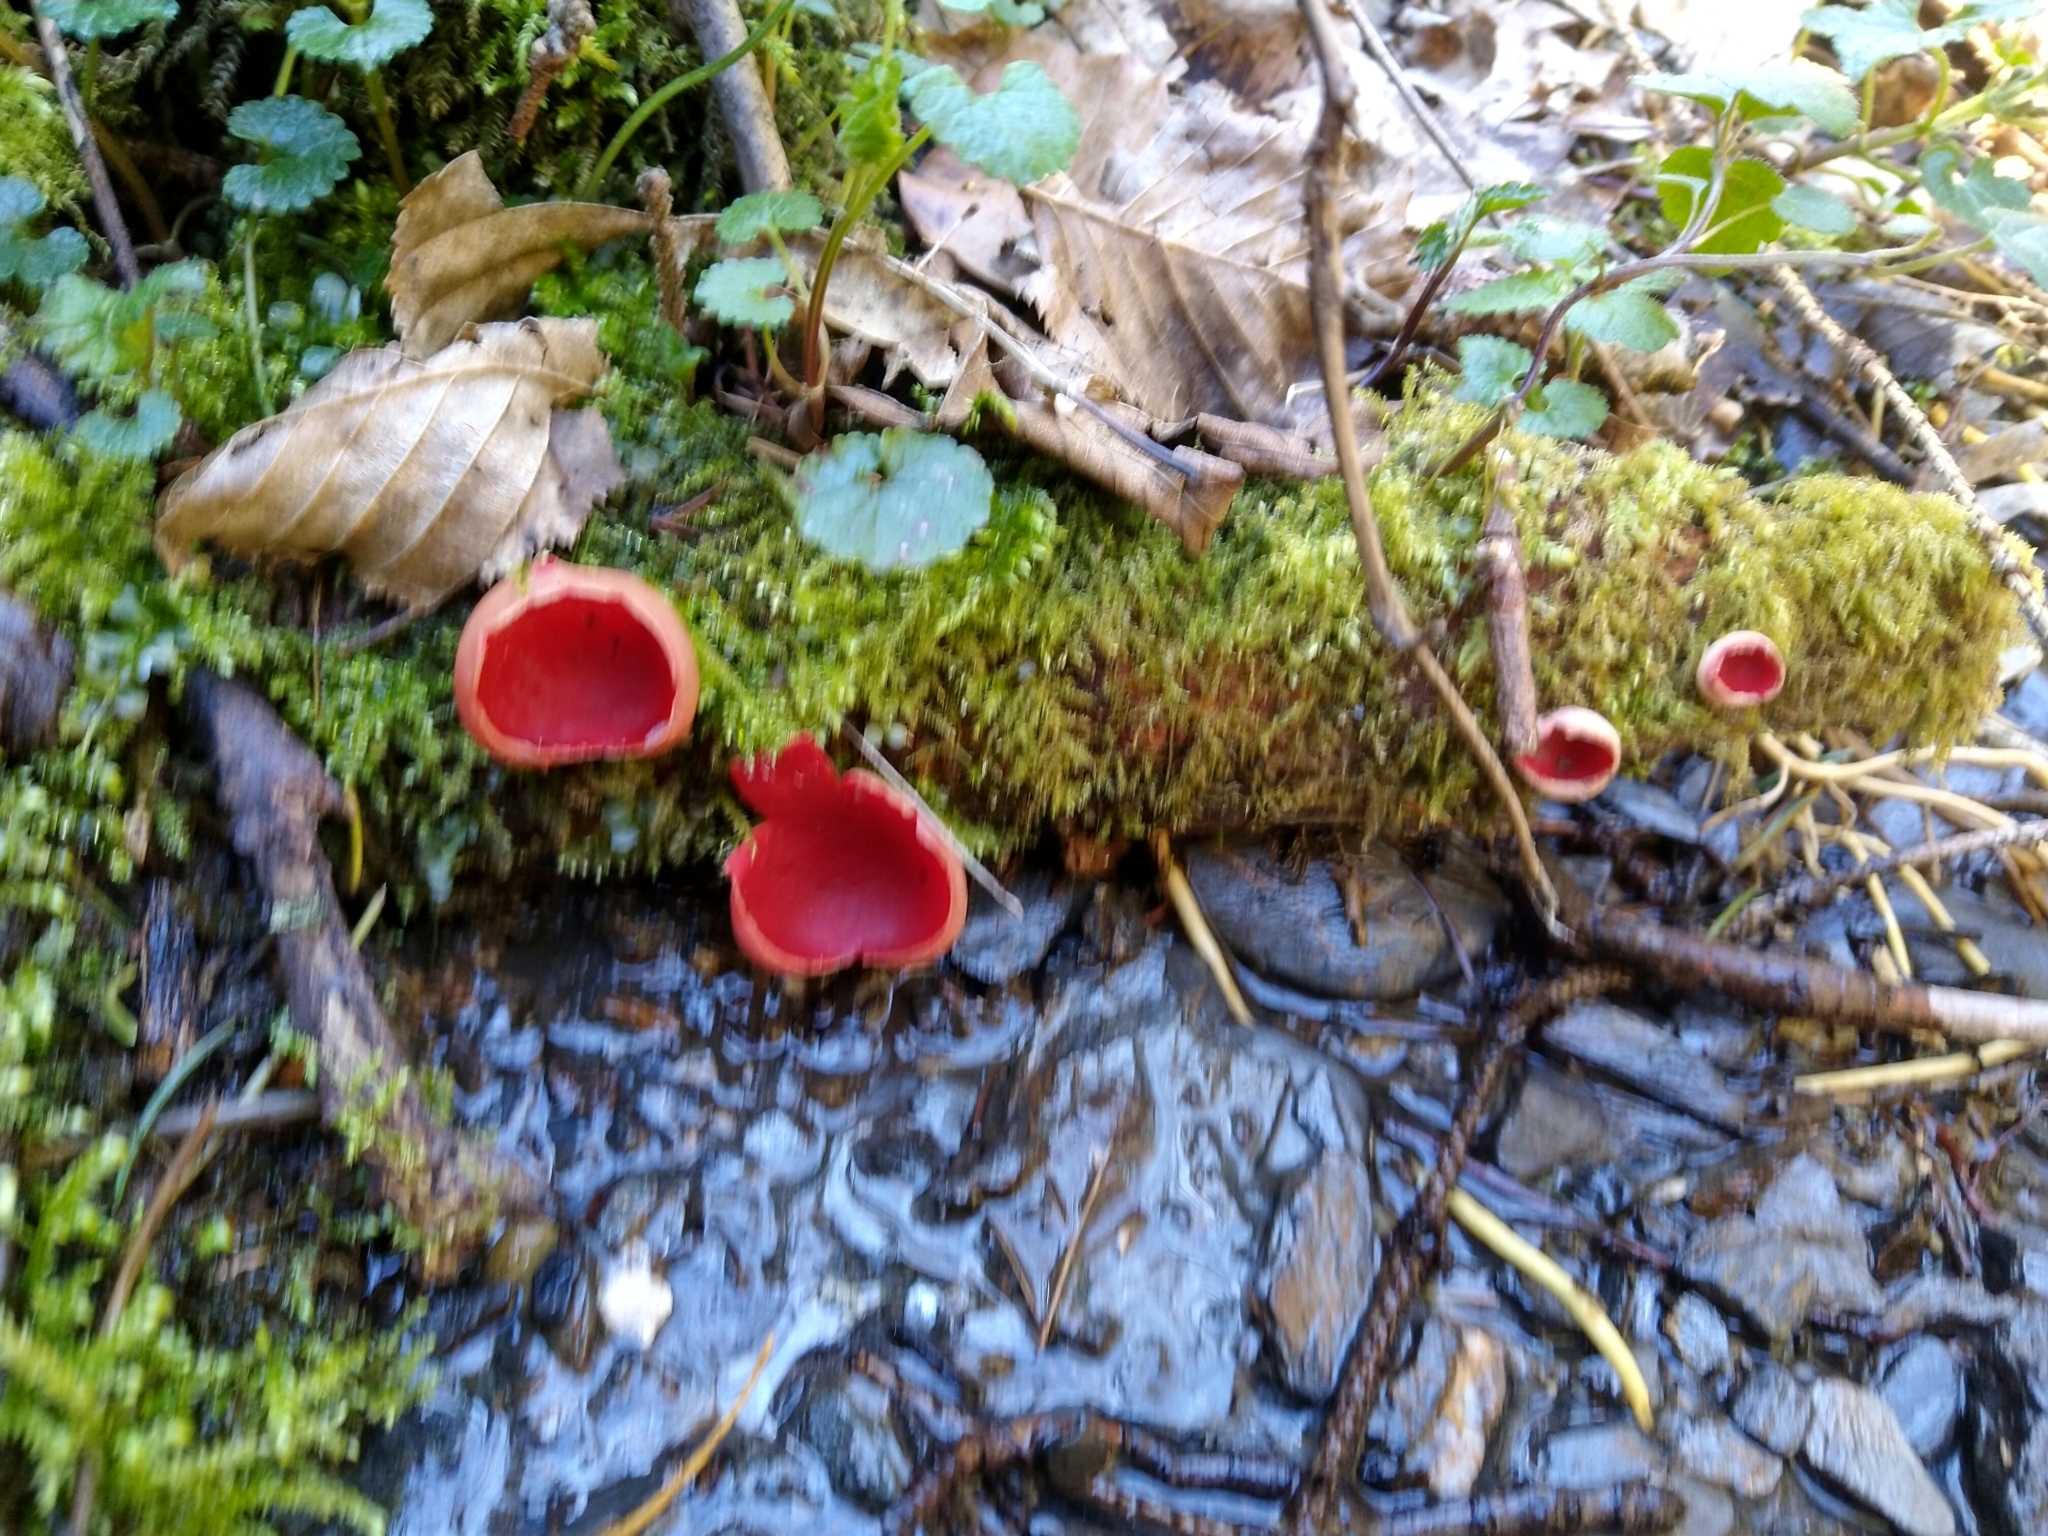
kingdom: Fungi
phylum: Ascomycota
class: Pezizomycetes
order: Pezizales
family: Sarcoscyphaceae
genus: Sarcoscypha
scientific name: Sarcoscypha
